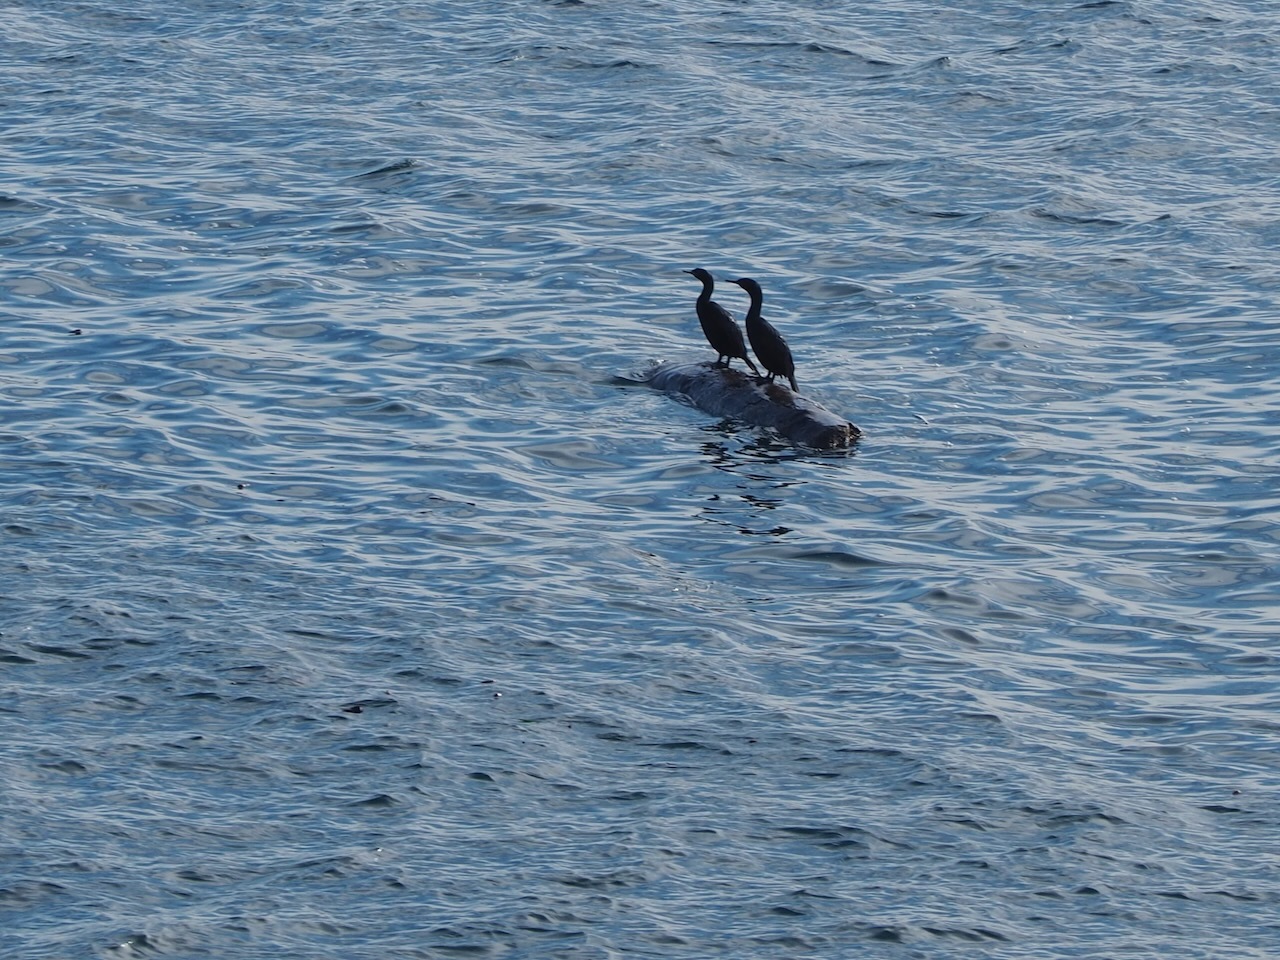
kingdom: Animalia
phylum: Chordata
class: Aves
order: Suliformes
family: Phalacrocoracidae
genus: Phalacrocorax
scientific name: Phalacrocorax pelagicus
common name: Pelagic cormorant
